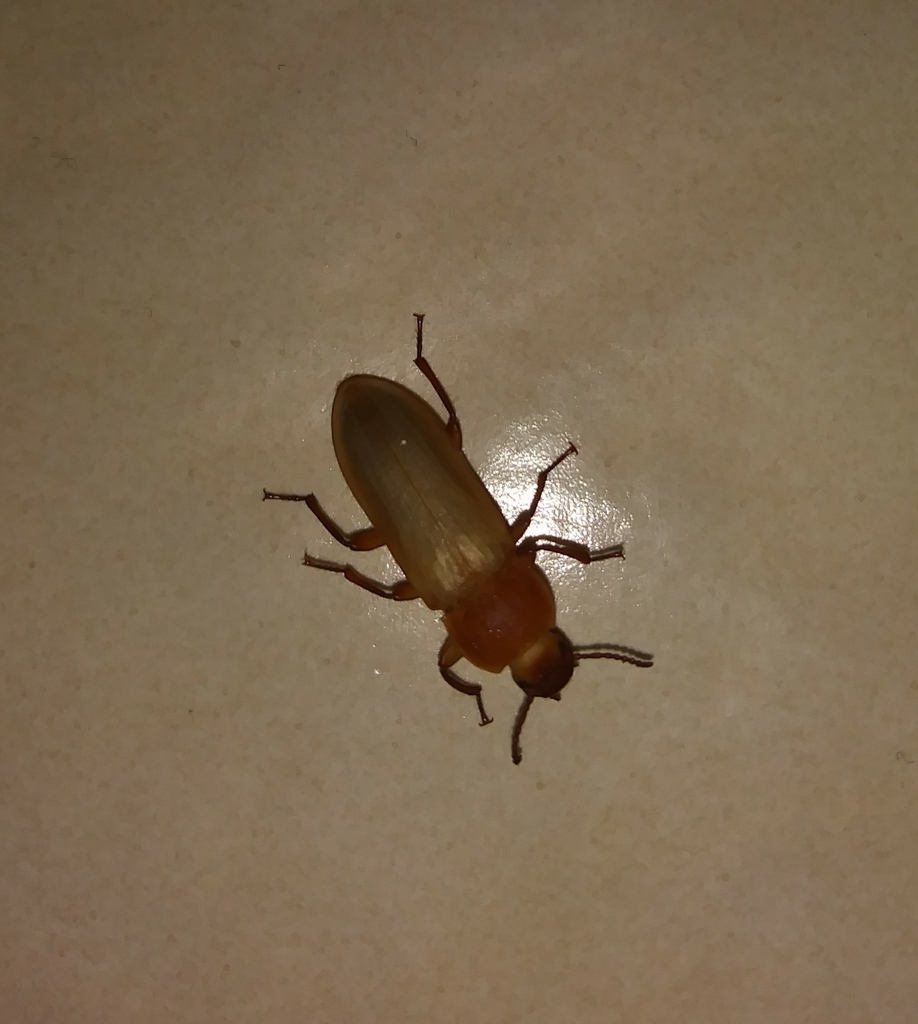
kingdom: Animalia
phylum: Arthropoda
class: Insecta
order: Coleoptera
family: Tenebrionidae
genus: Tenebrio
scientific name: Tenebrio obscurus
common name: Dark mealworm beetle
